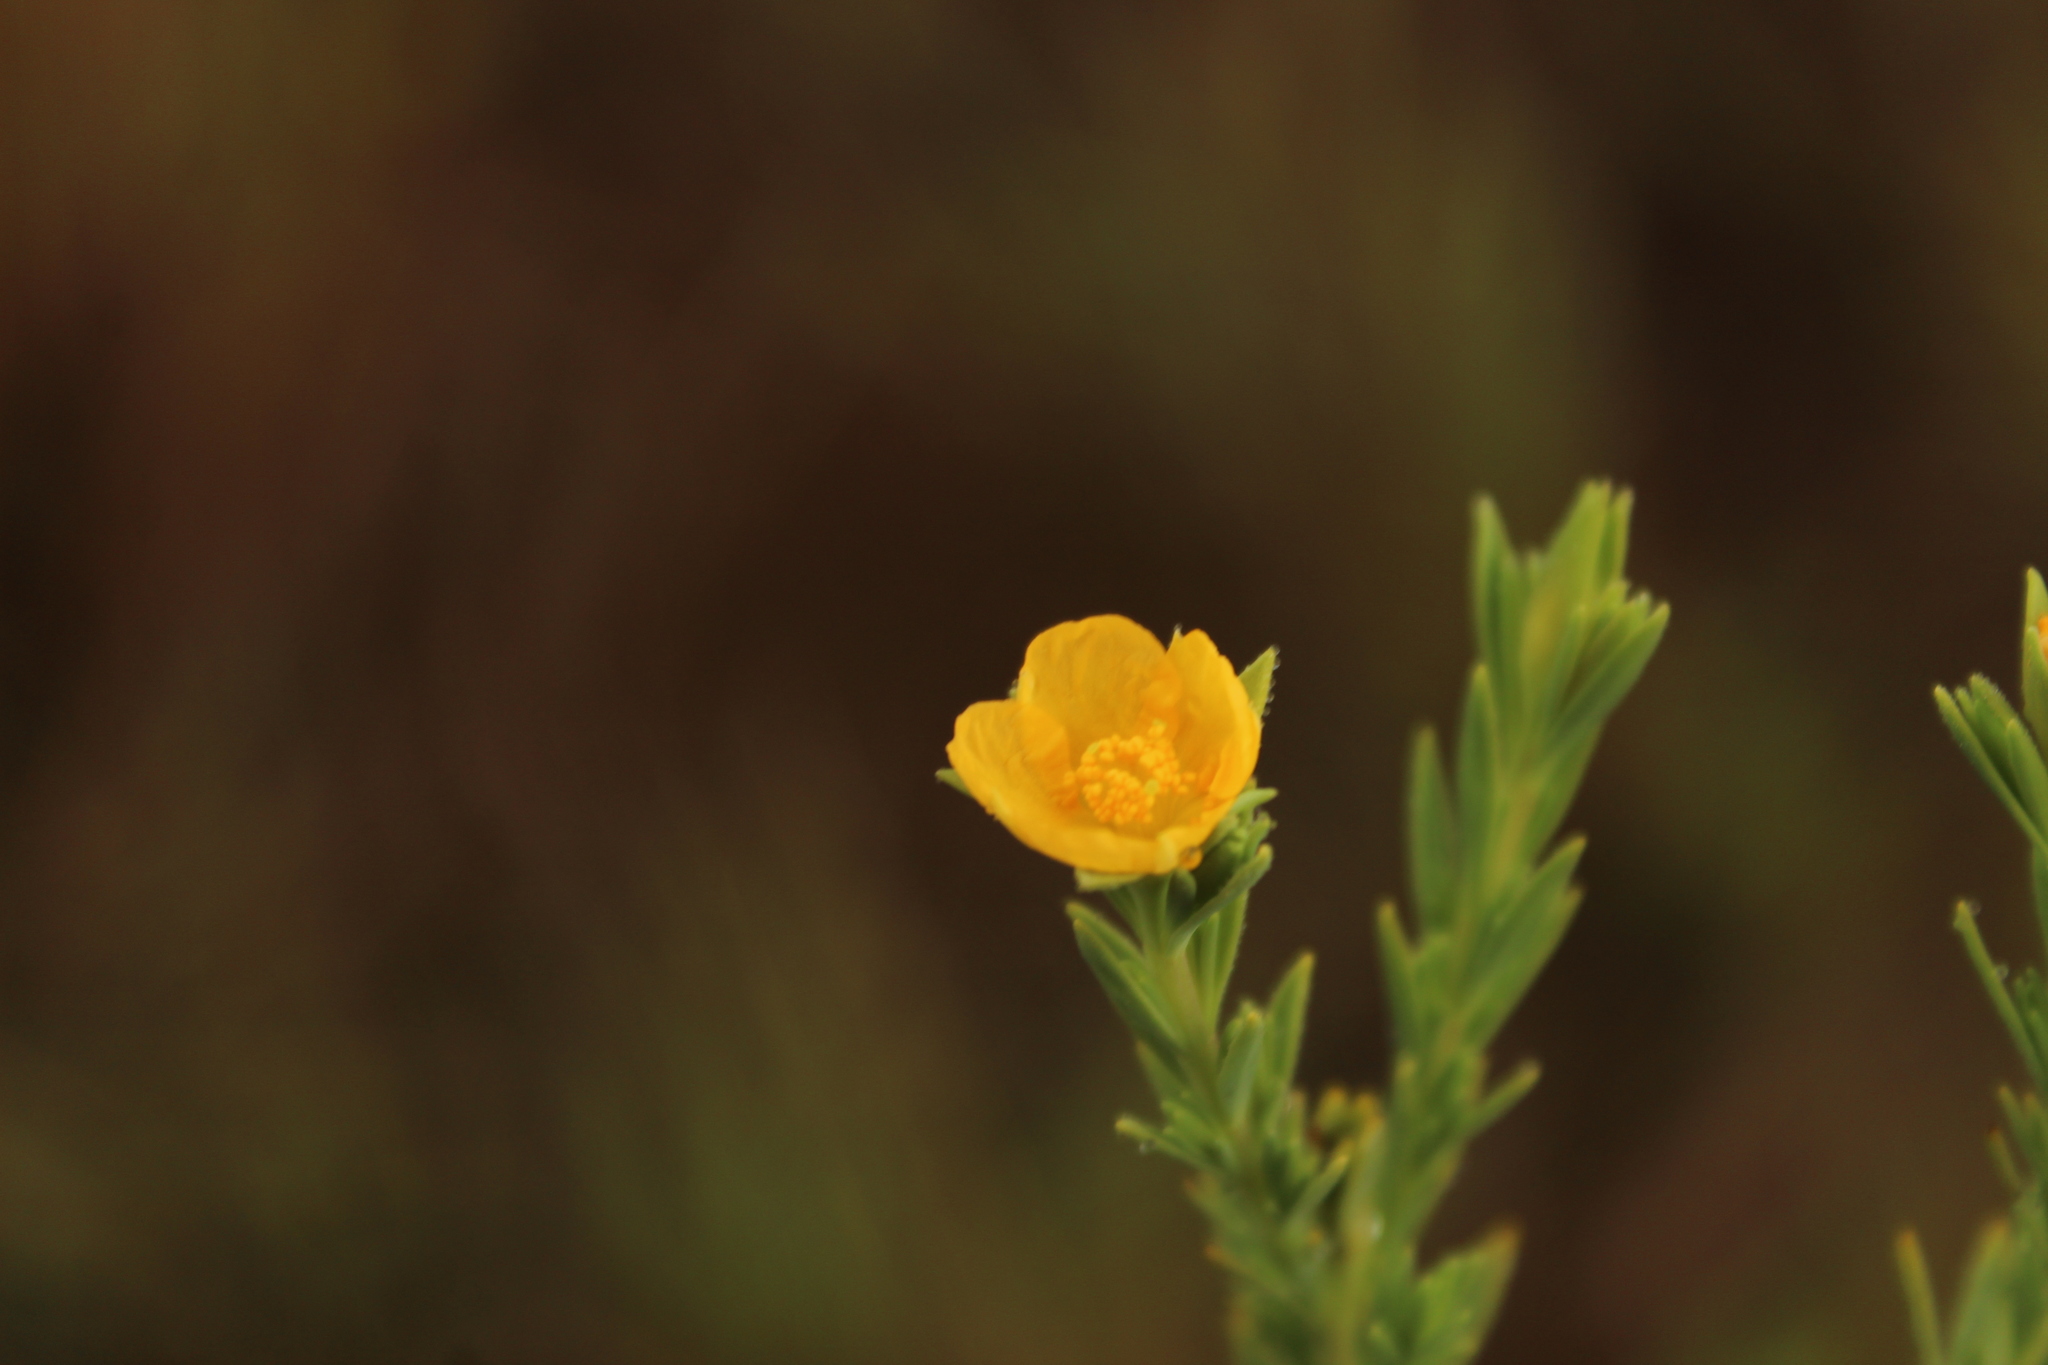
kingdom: Plantae
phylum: Tracheophyta
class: Magnoliopsida
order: Malpighiales
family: Hypericaceae
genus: Hypericum
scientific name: Hypericum humboldtianum
